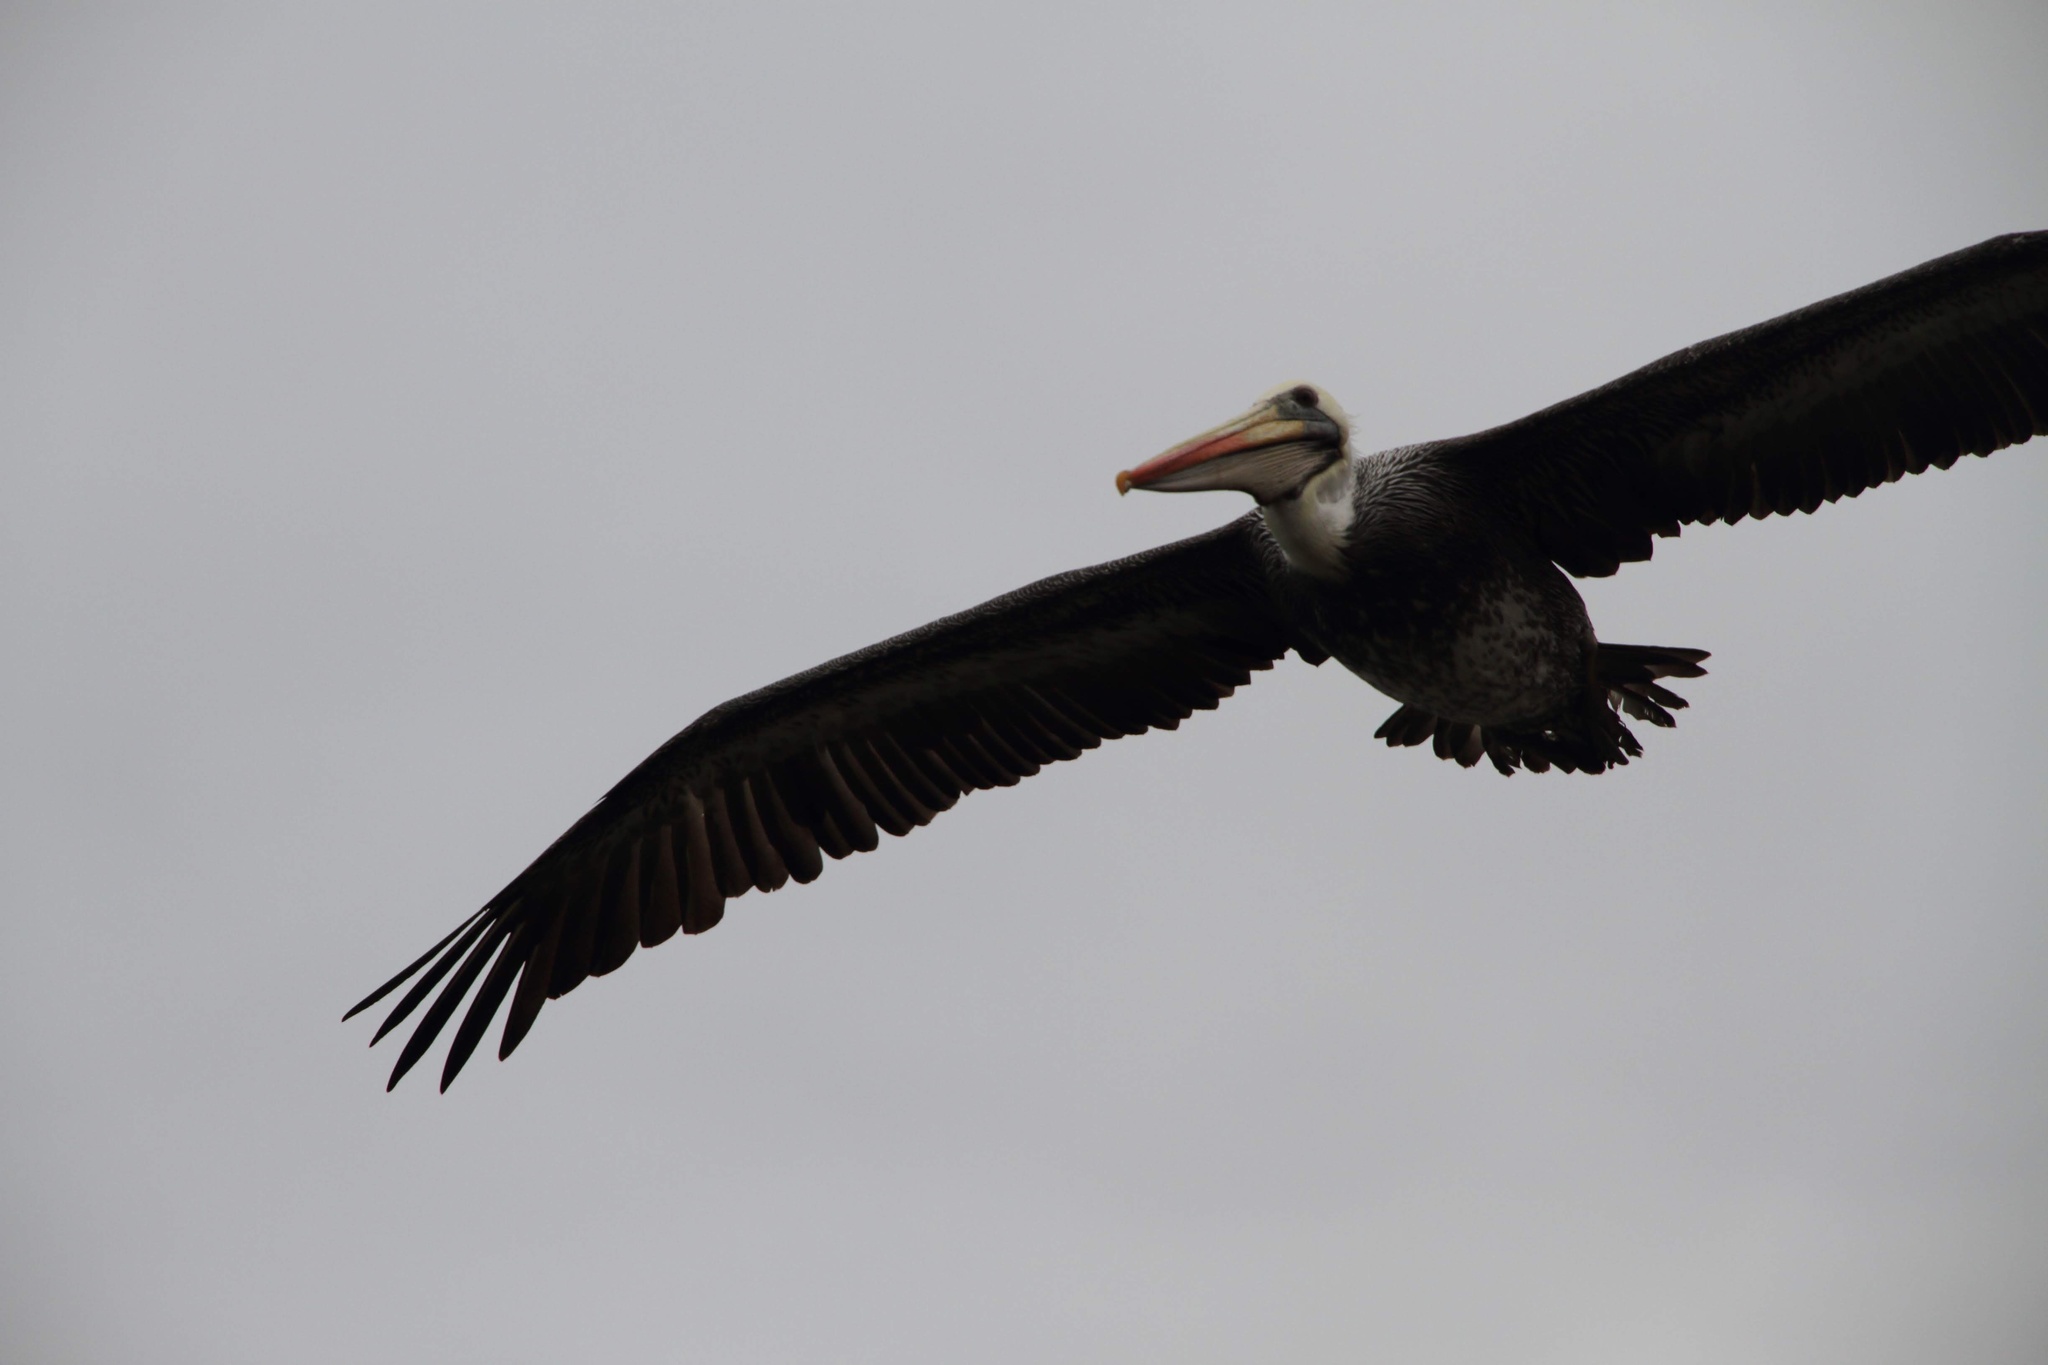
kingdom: Animalia
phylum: Chordata
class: Aves
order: Pelecaniformes
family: Pelecanidae
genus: Pelecanus
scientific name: Pelecanus thagus
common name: Peruvian pelican
